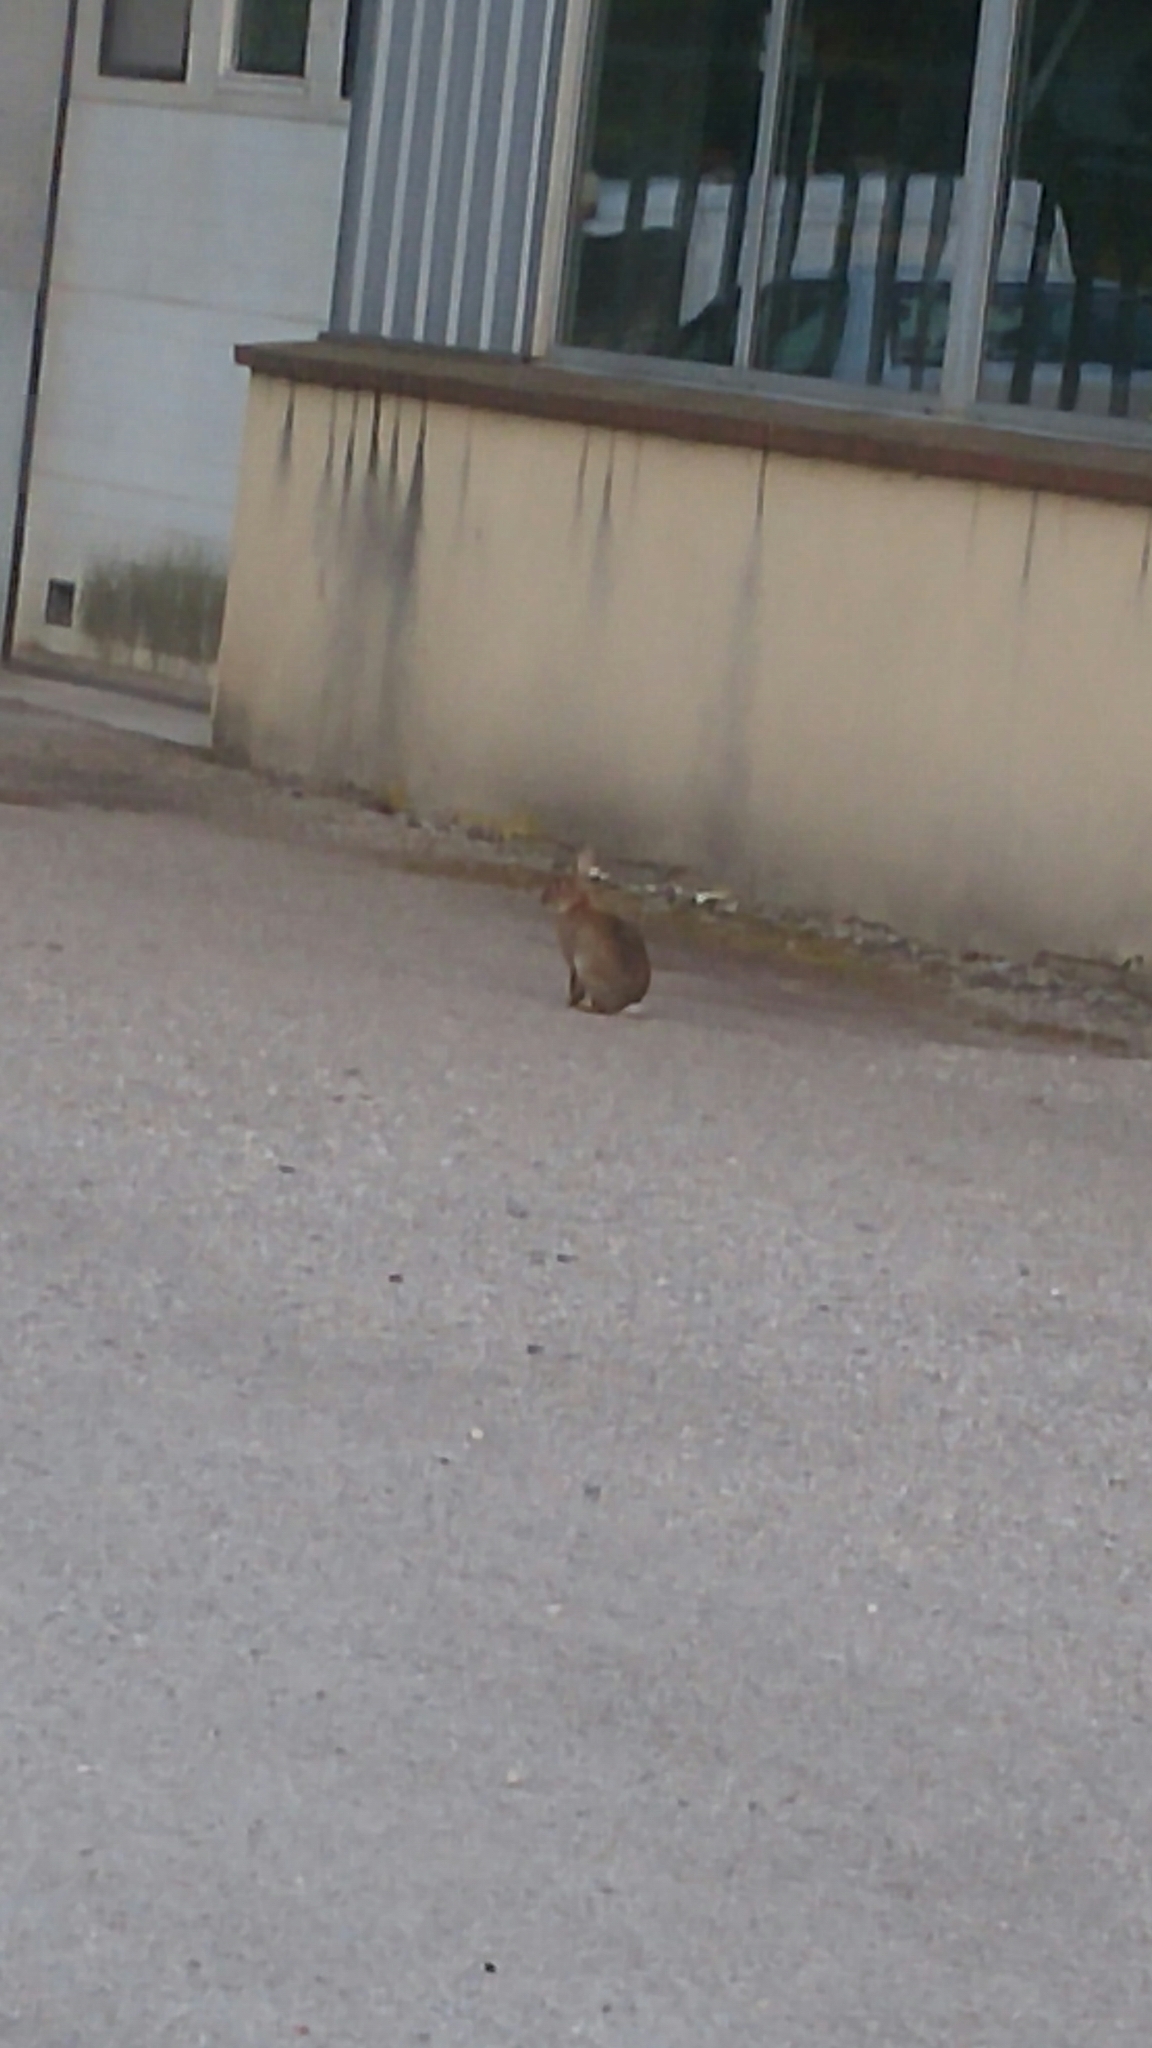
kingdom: Animalia
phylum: Chordata
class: Mammalia
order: Lagomorpha
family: Leporidae
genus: Oryctolagus
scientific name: Oryctolagus cuniculus
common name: European rabbit
